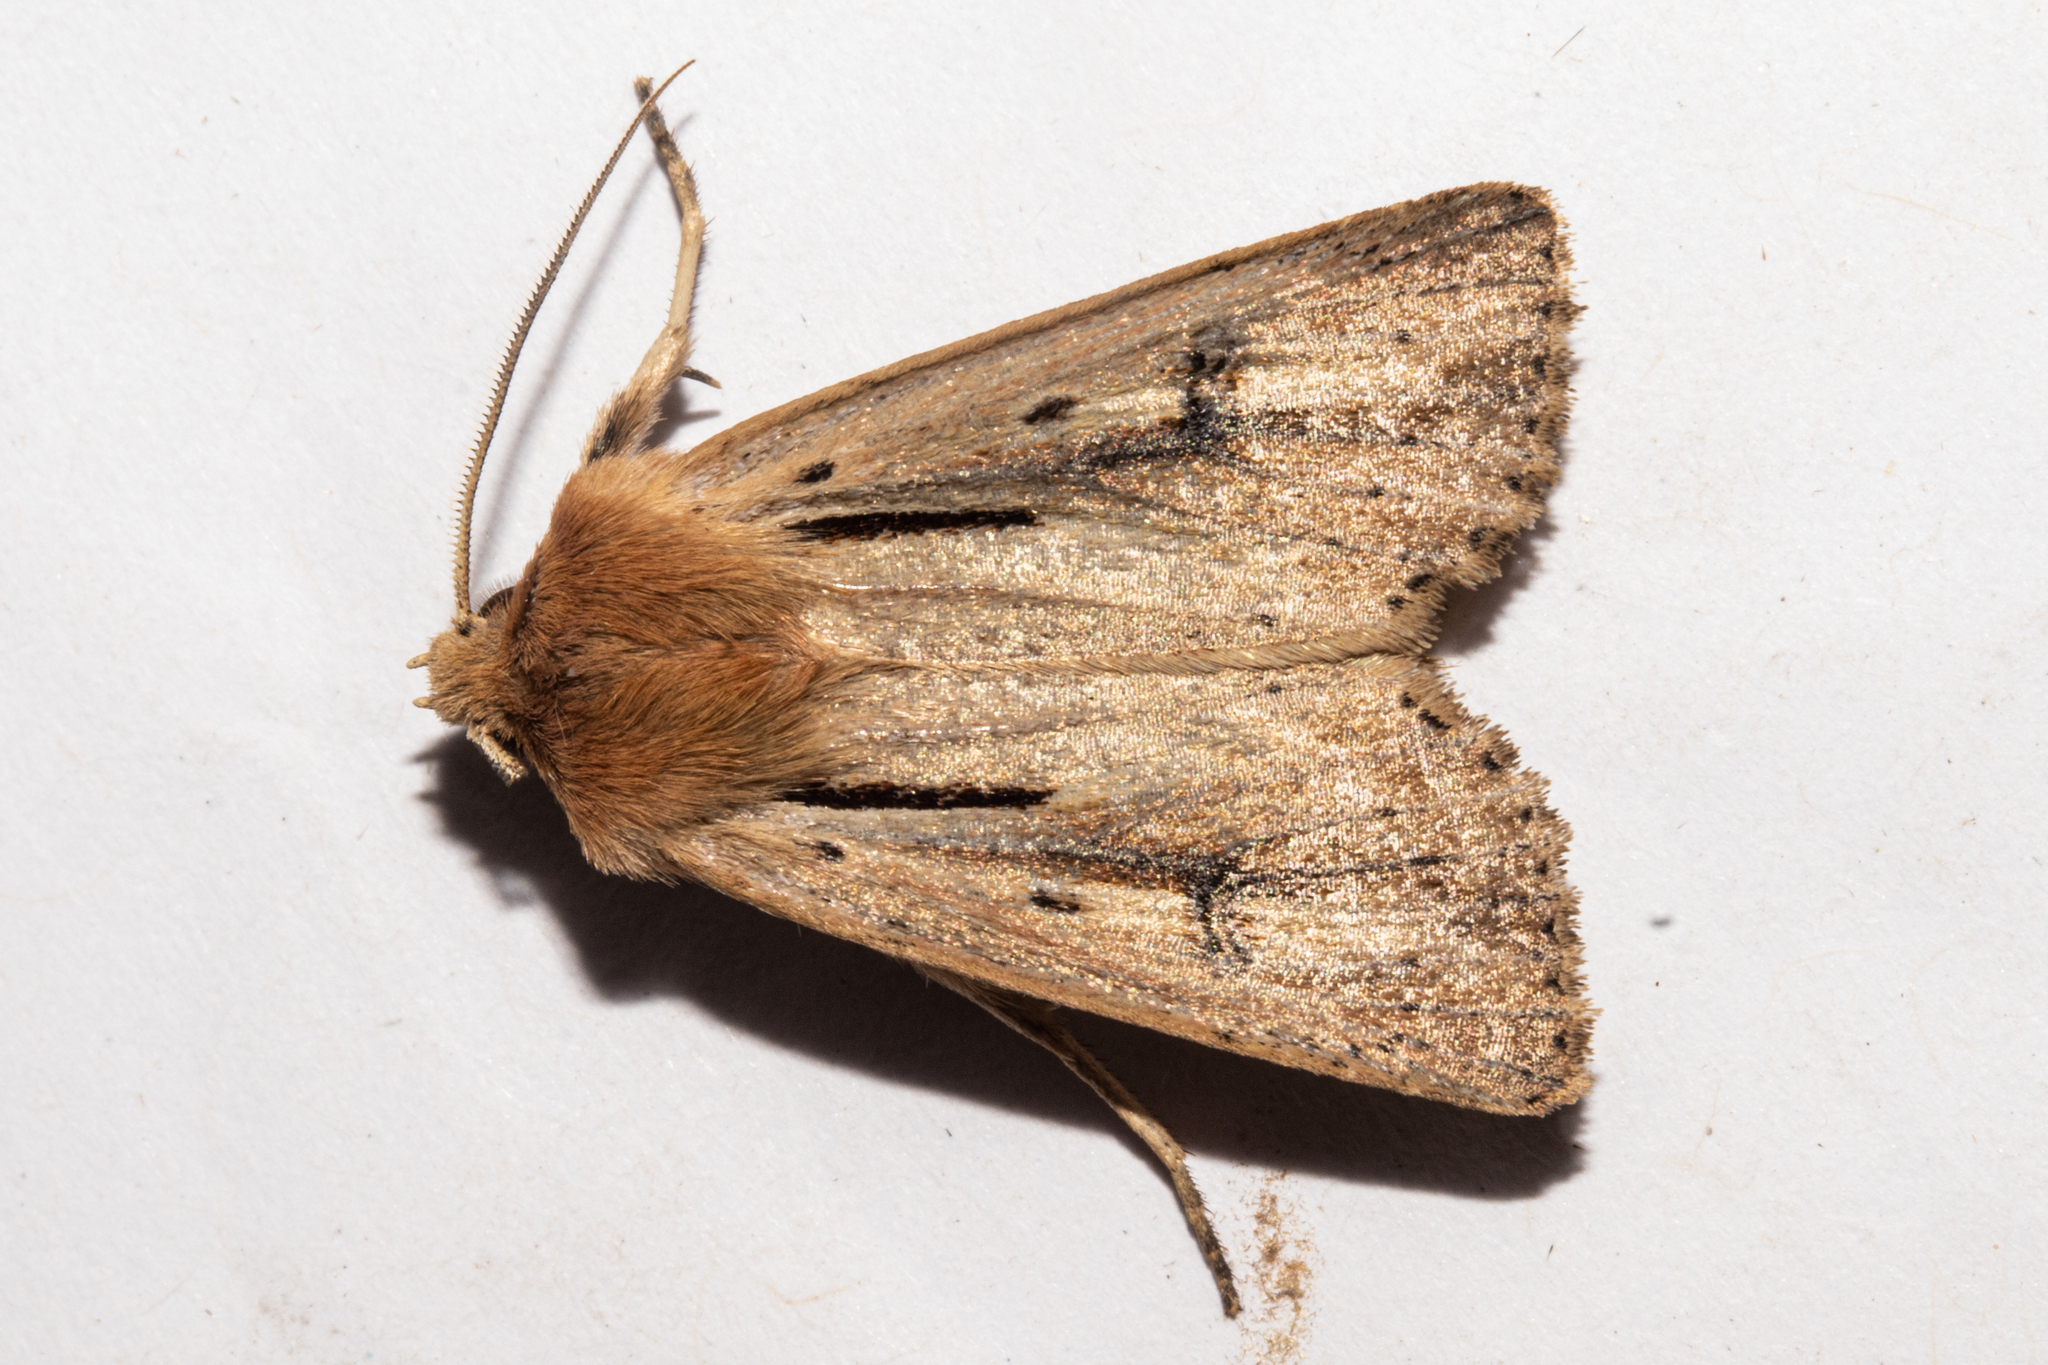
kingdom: Animalia
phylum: Arthropoda
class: Insecta
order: Lepidoptera
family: Noctuidae
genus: Ichneutica
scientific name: Ichneutica propria
